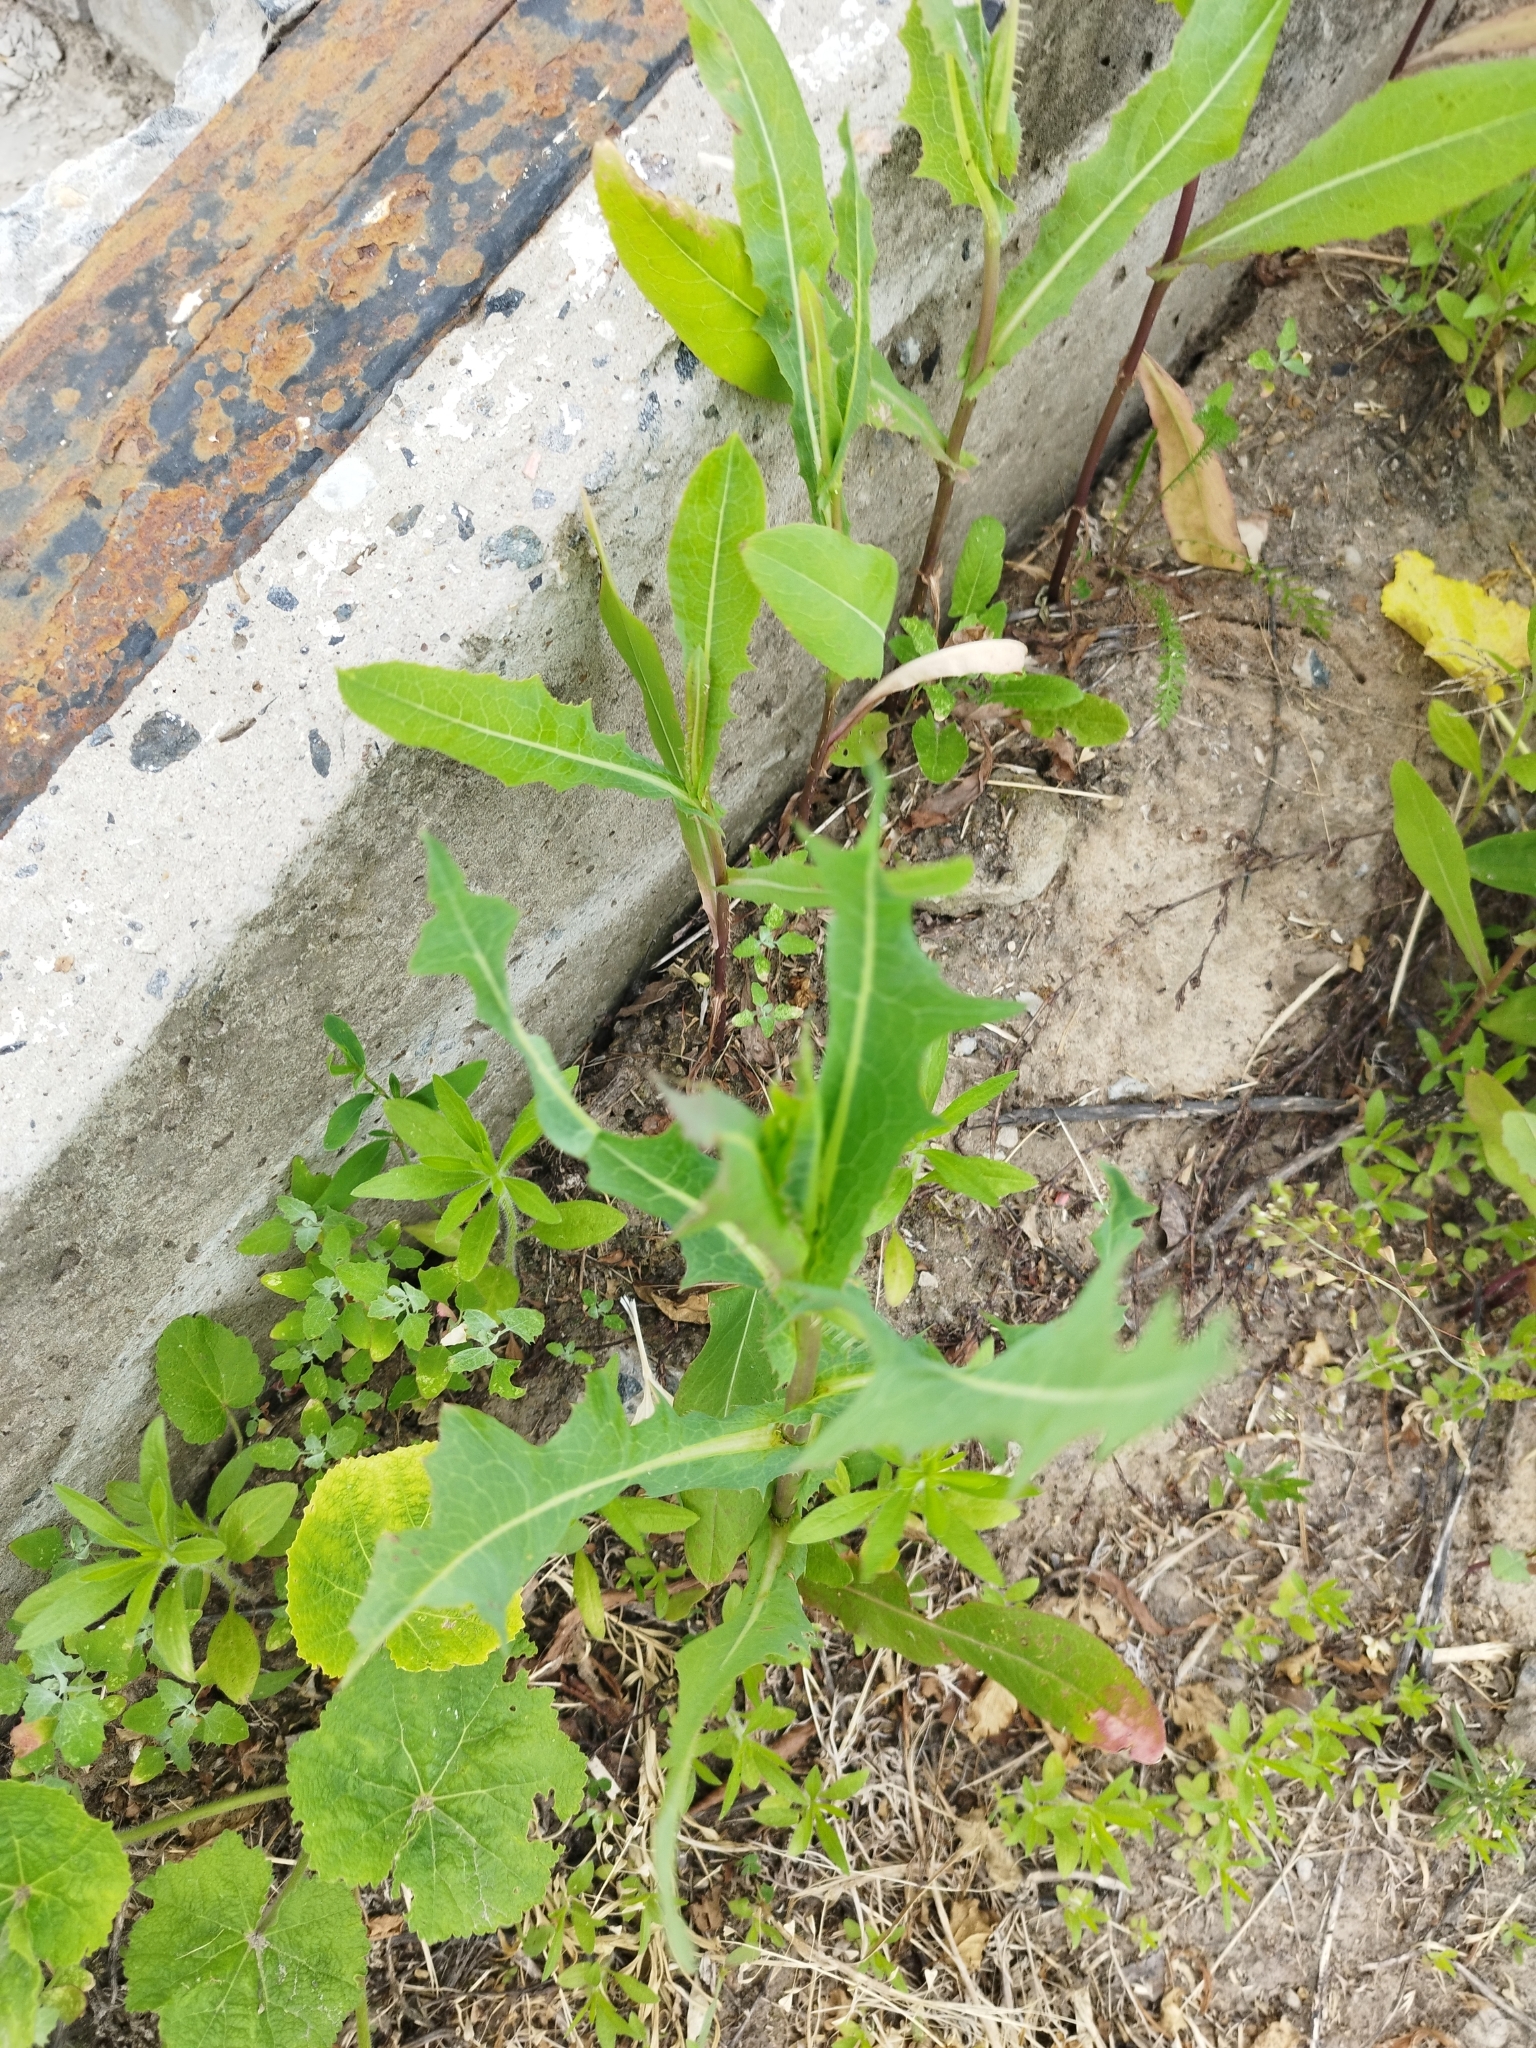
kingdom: Plantae
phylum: Tracheophyta
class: Magnoliopsida
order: Asterales
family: Asteraceae
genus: Lactuca
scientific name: Lactuca serriola
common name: Prickly lettuce
